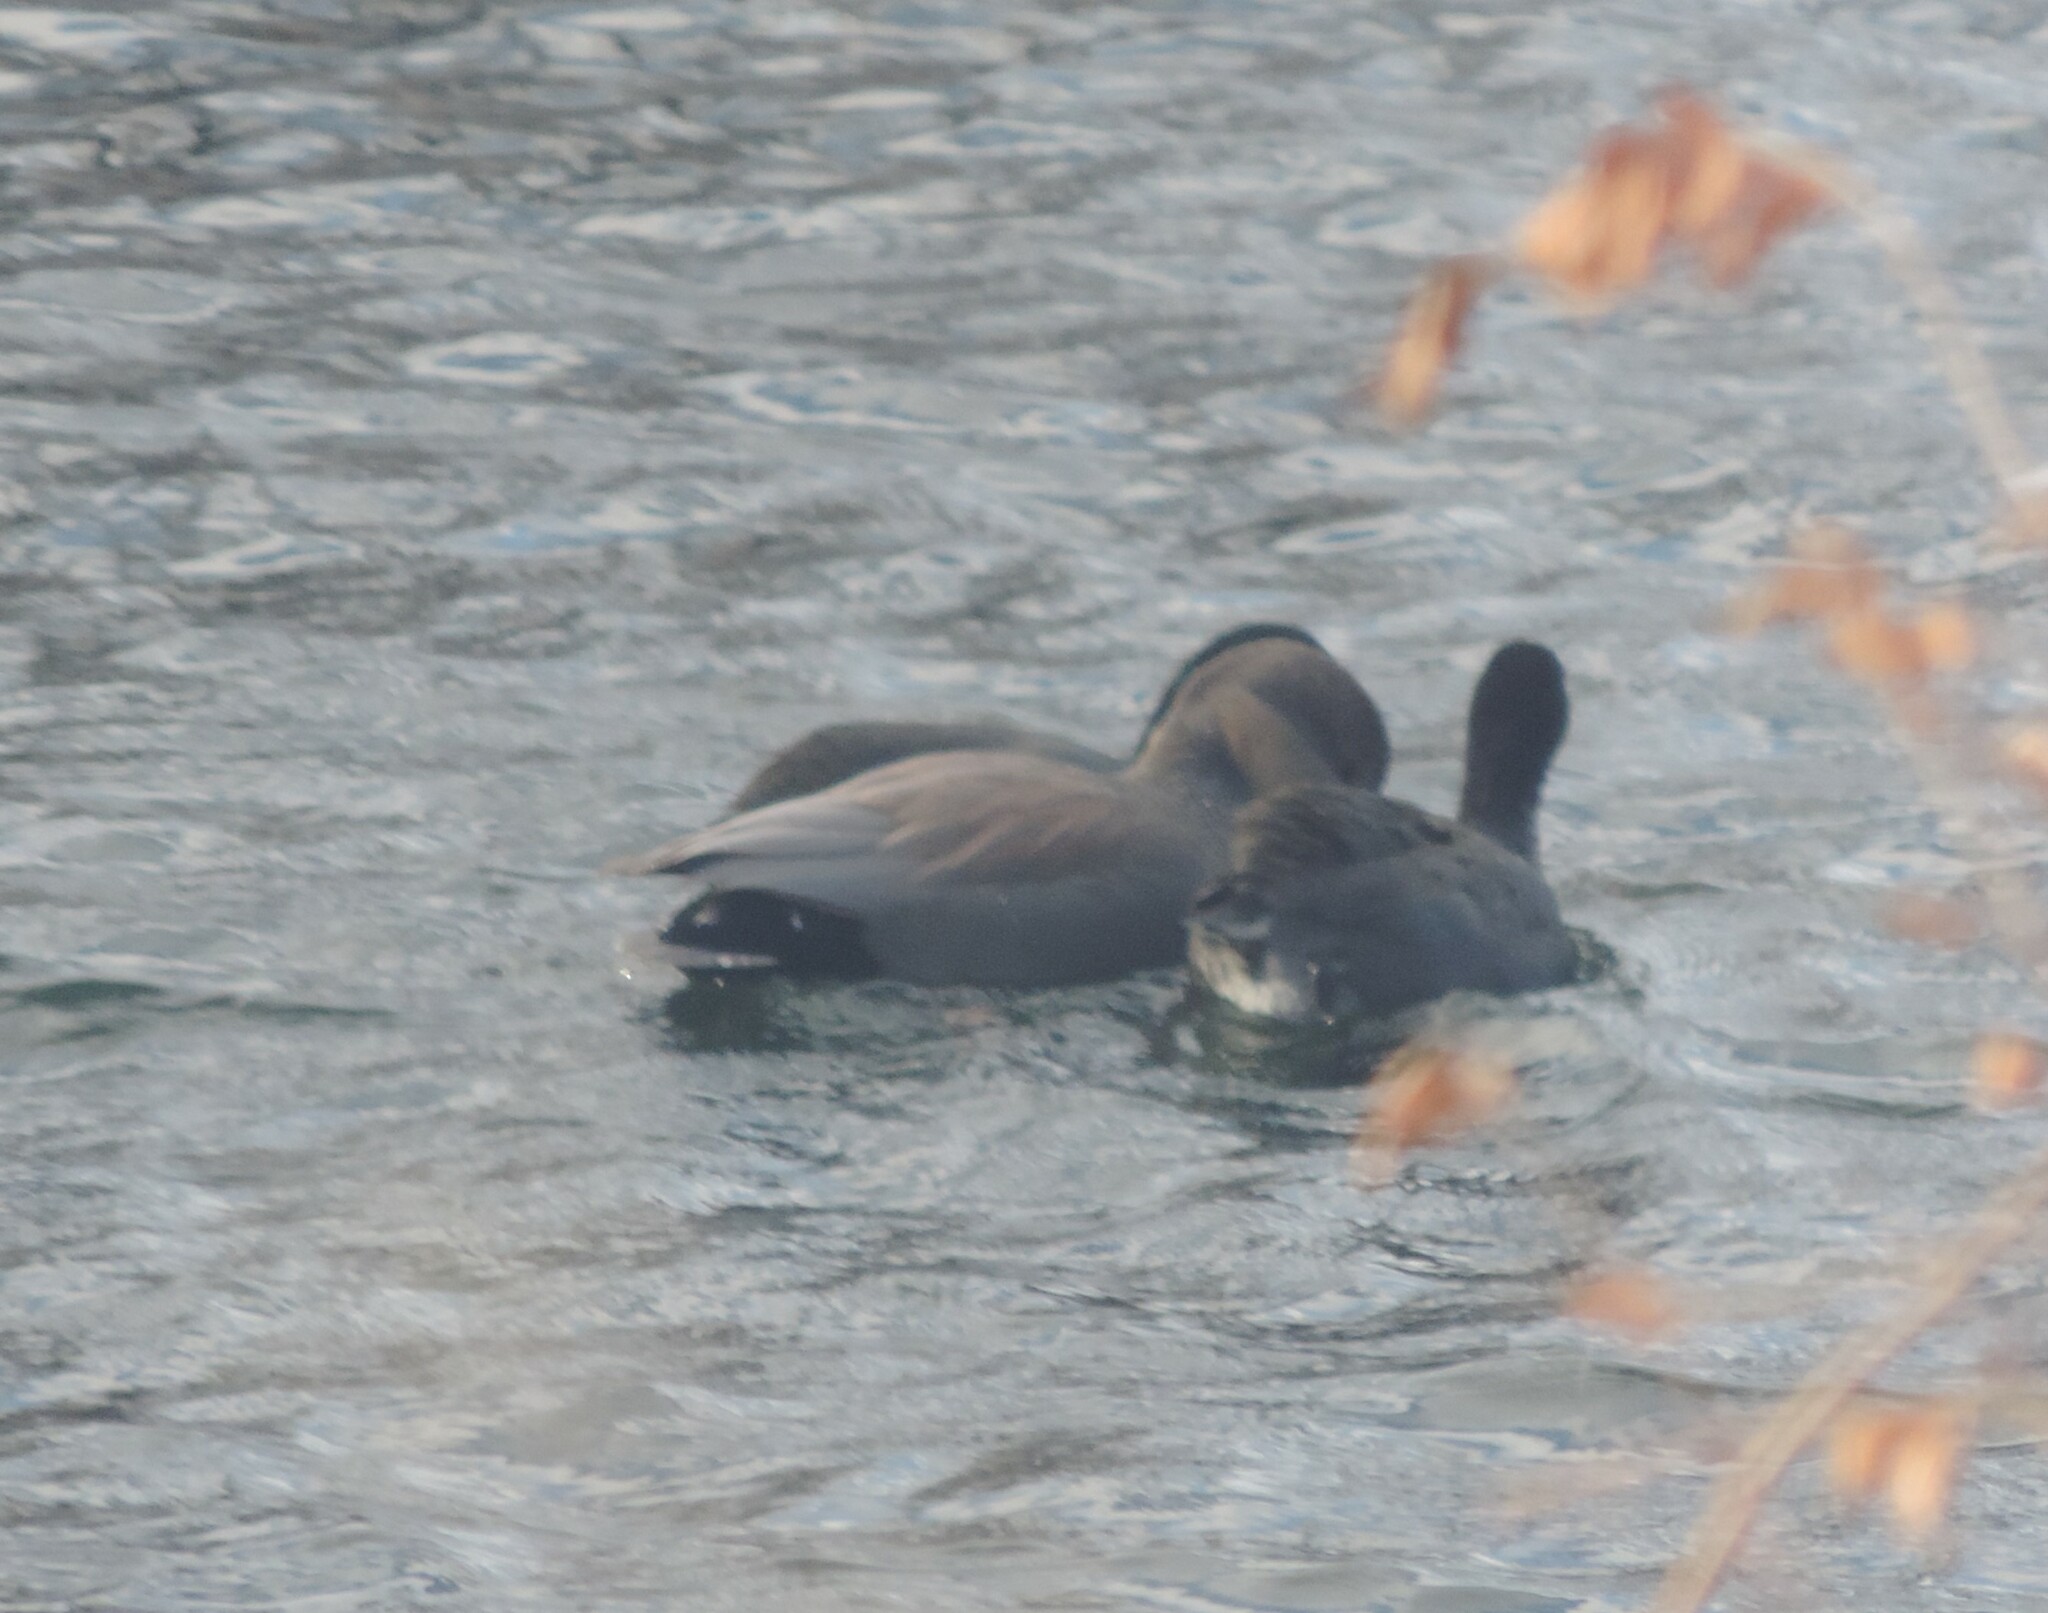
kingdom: Animalia
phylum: Chordata
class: Aves
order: Anseriformes
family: Anatidae
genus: Mareca
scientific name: Mareca strepera
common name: Gadwall
